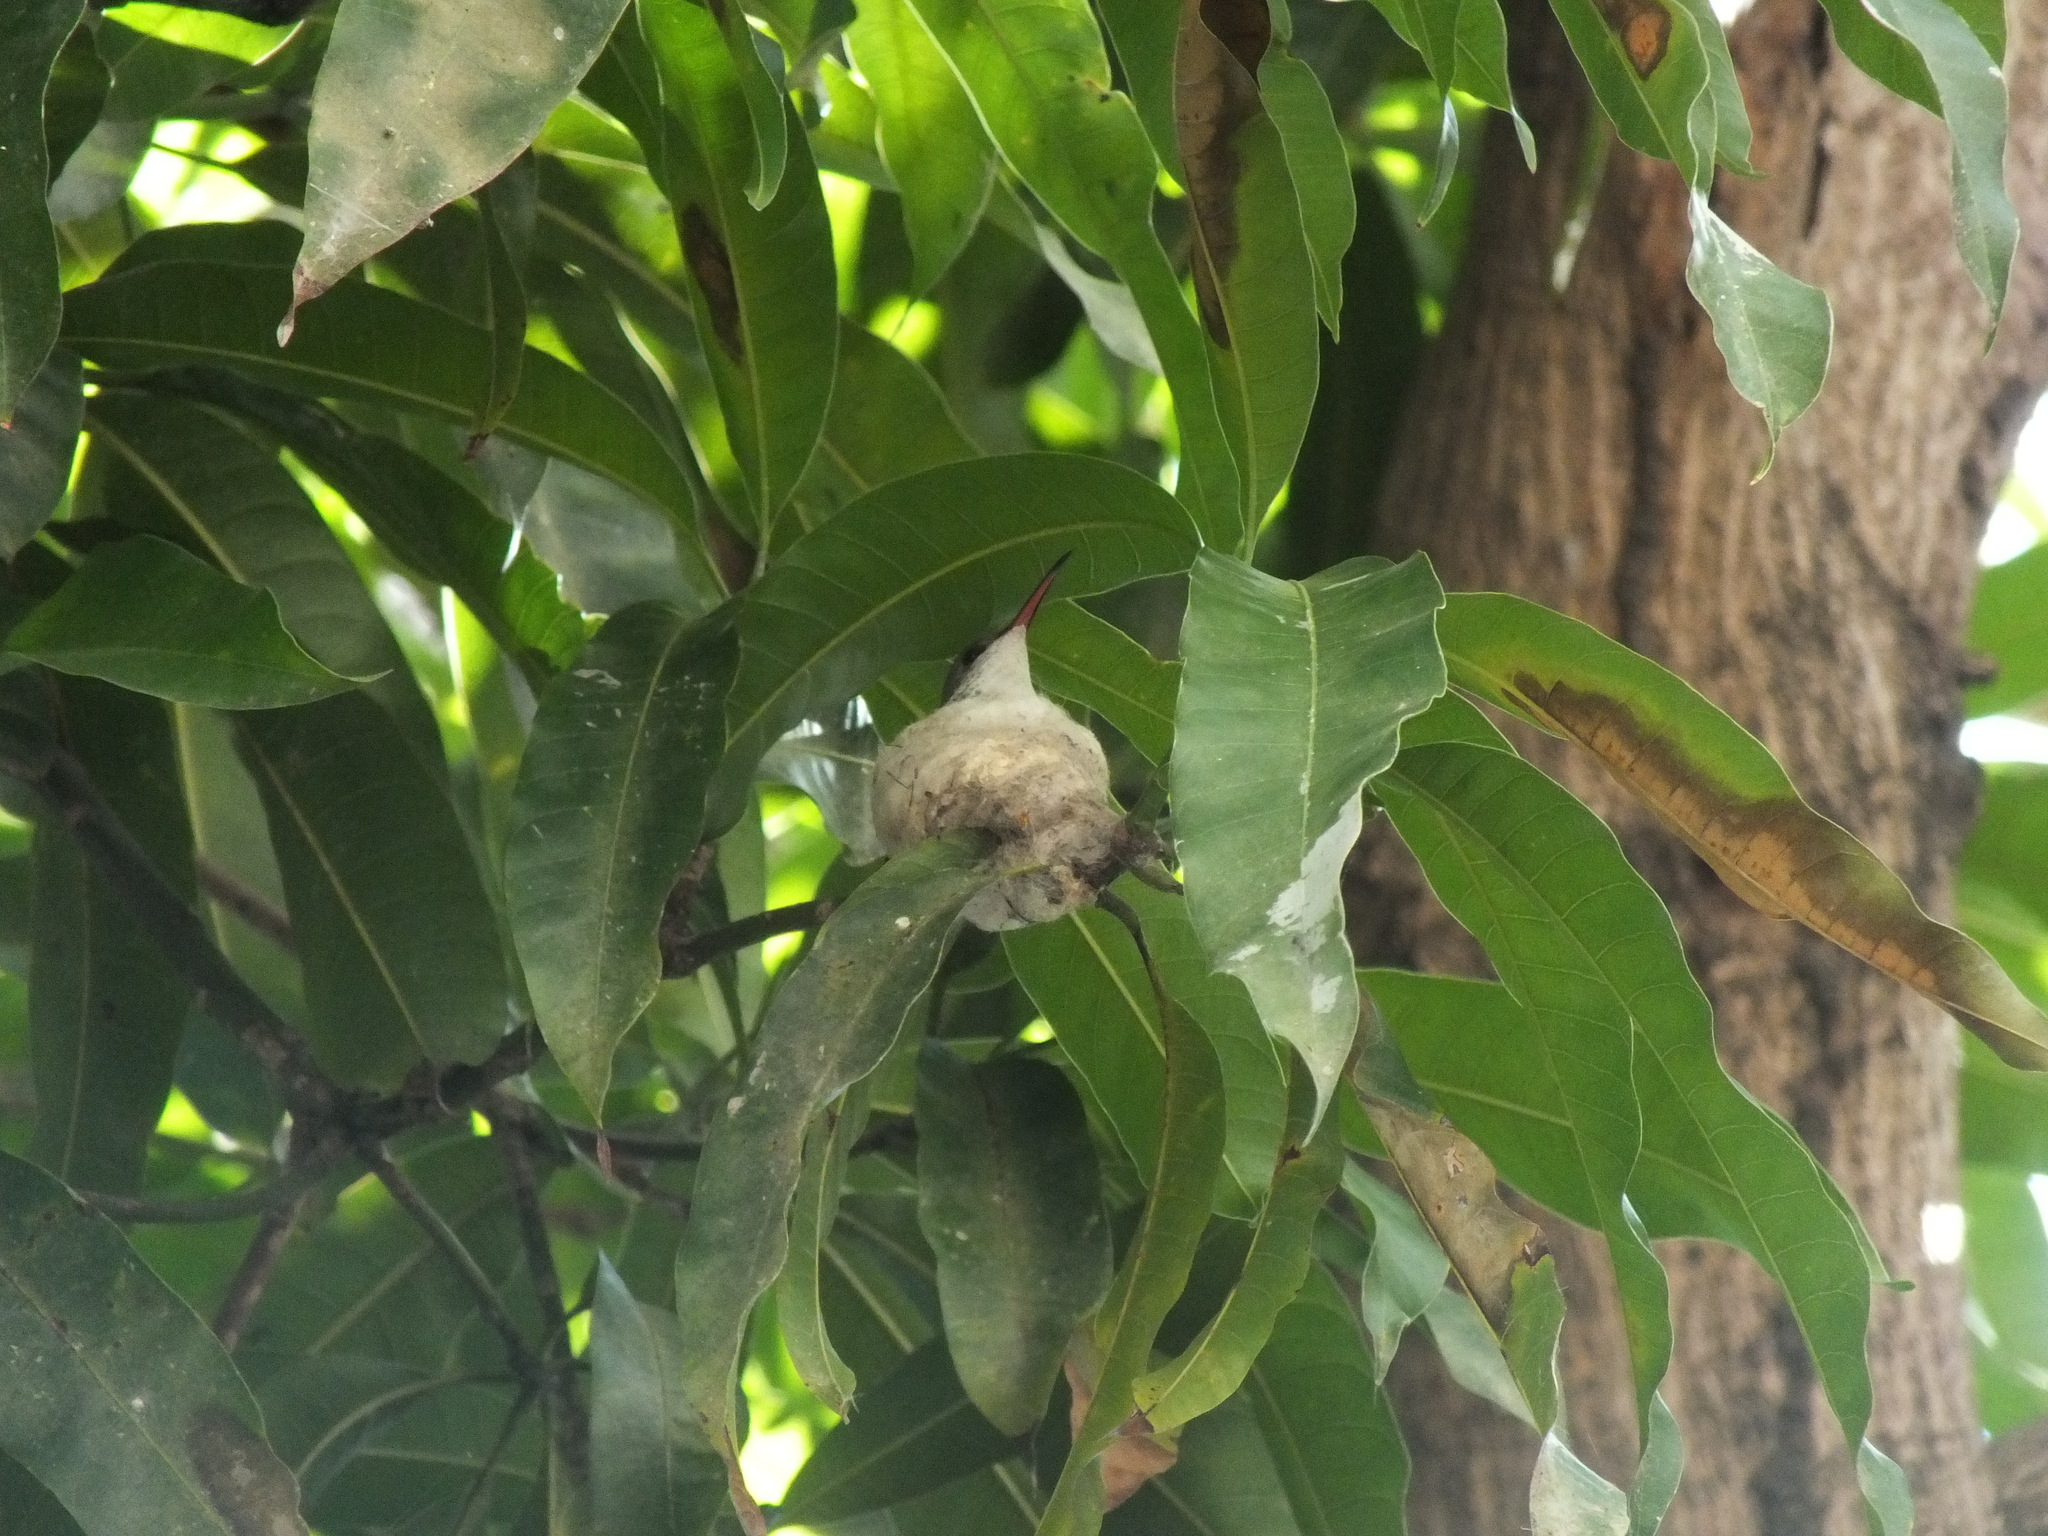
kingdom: Animalia
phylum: Chordata
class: Aves
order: Apodiformes
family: Trochilidae
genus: Trochilus
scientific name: Trochilus polytmus
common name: Red-billed streamertail
